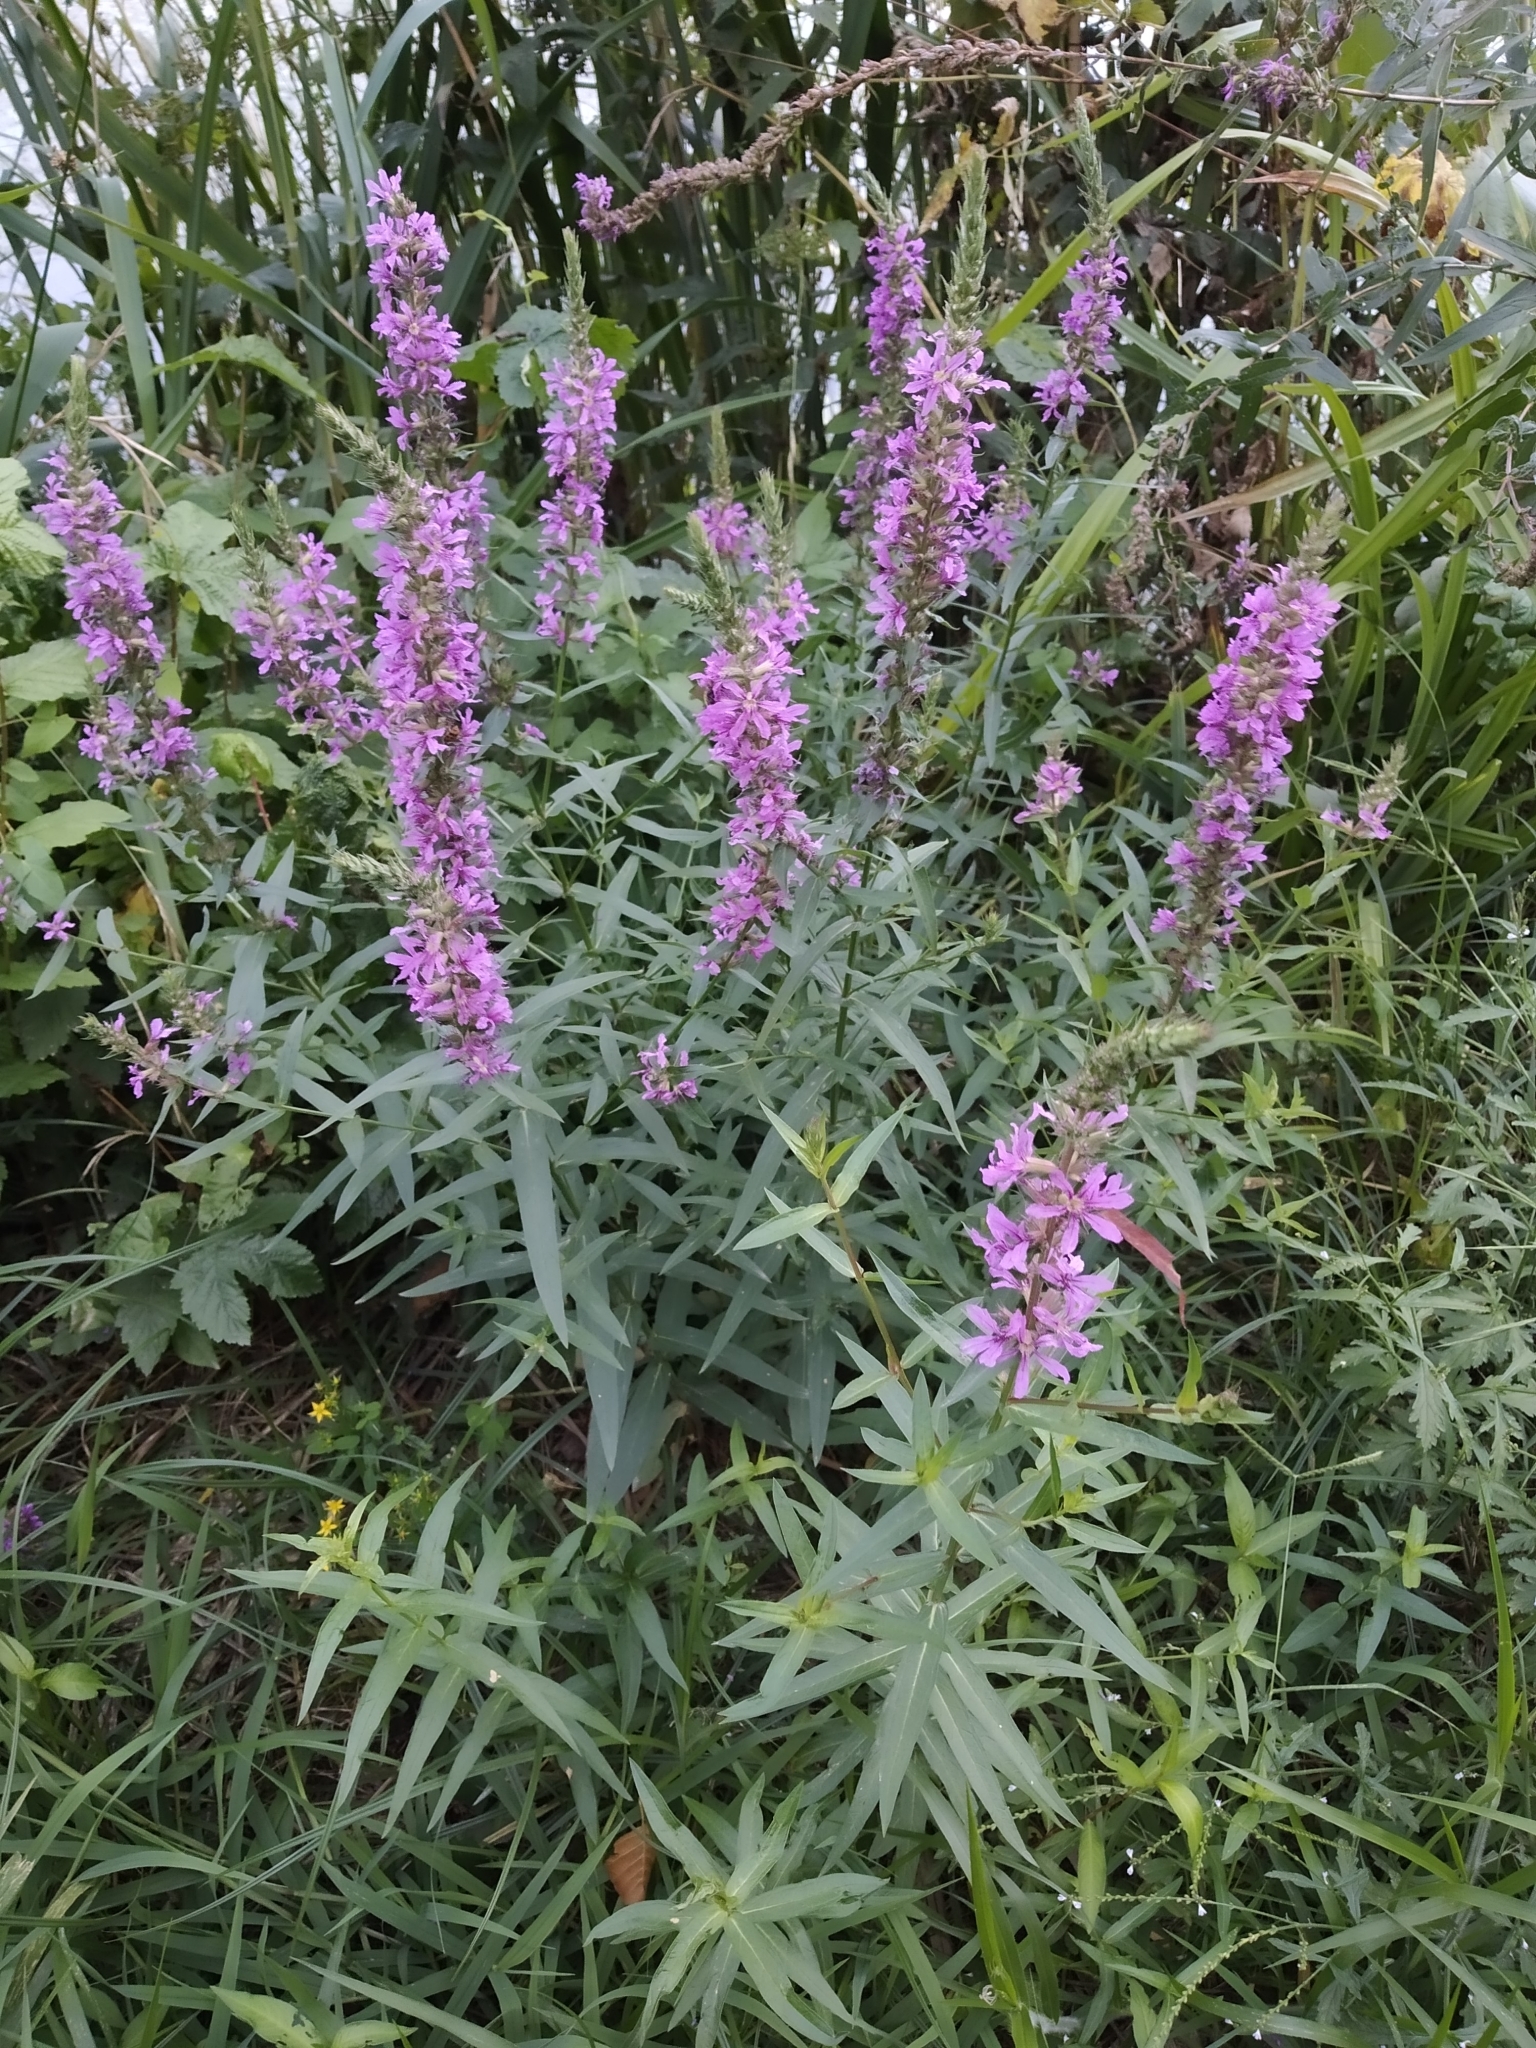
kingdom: Plantae
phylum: Tracheophyta
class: Magnoliopsida
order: Myrtales
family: Lythraceae
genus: Lythrum
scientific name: Lythrum salicaria
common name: Purple loosestrife
